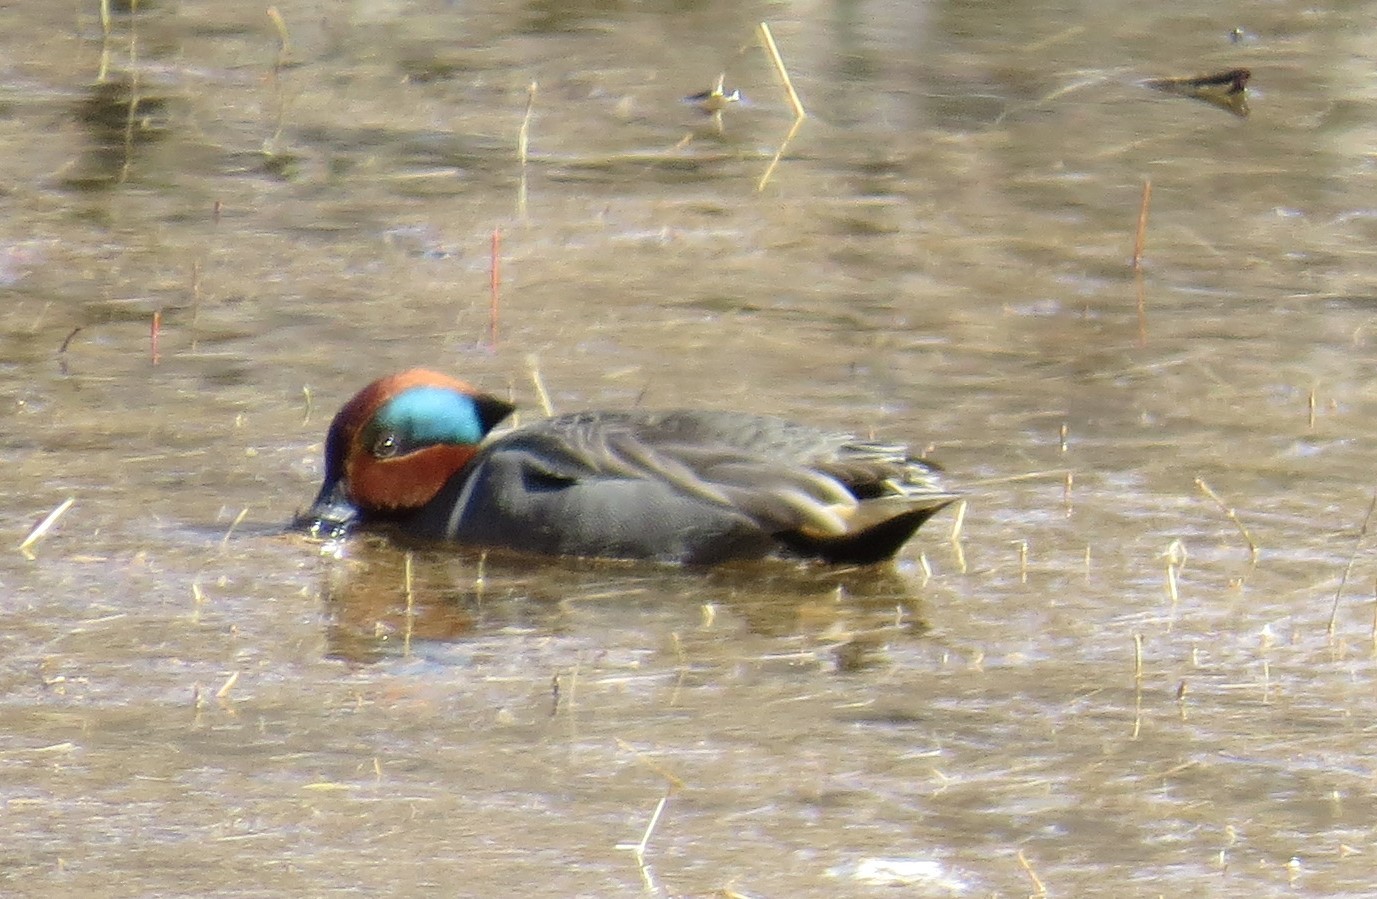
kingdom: Animalia
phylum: Chordata
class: Aves
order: Anseriformes
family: Anatidae
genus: Anas
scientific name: Anas crecca
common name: Eurasian teal
